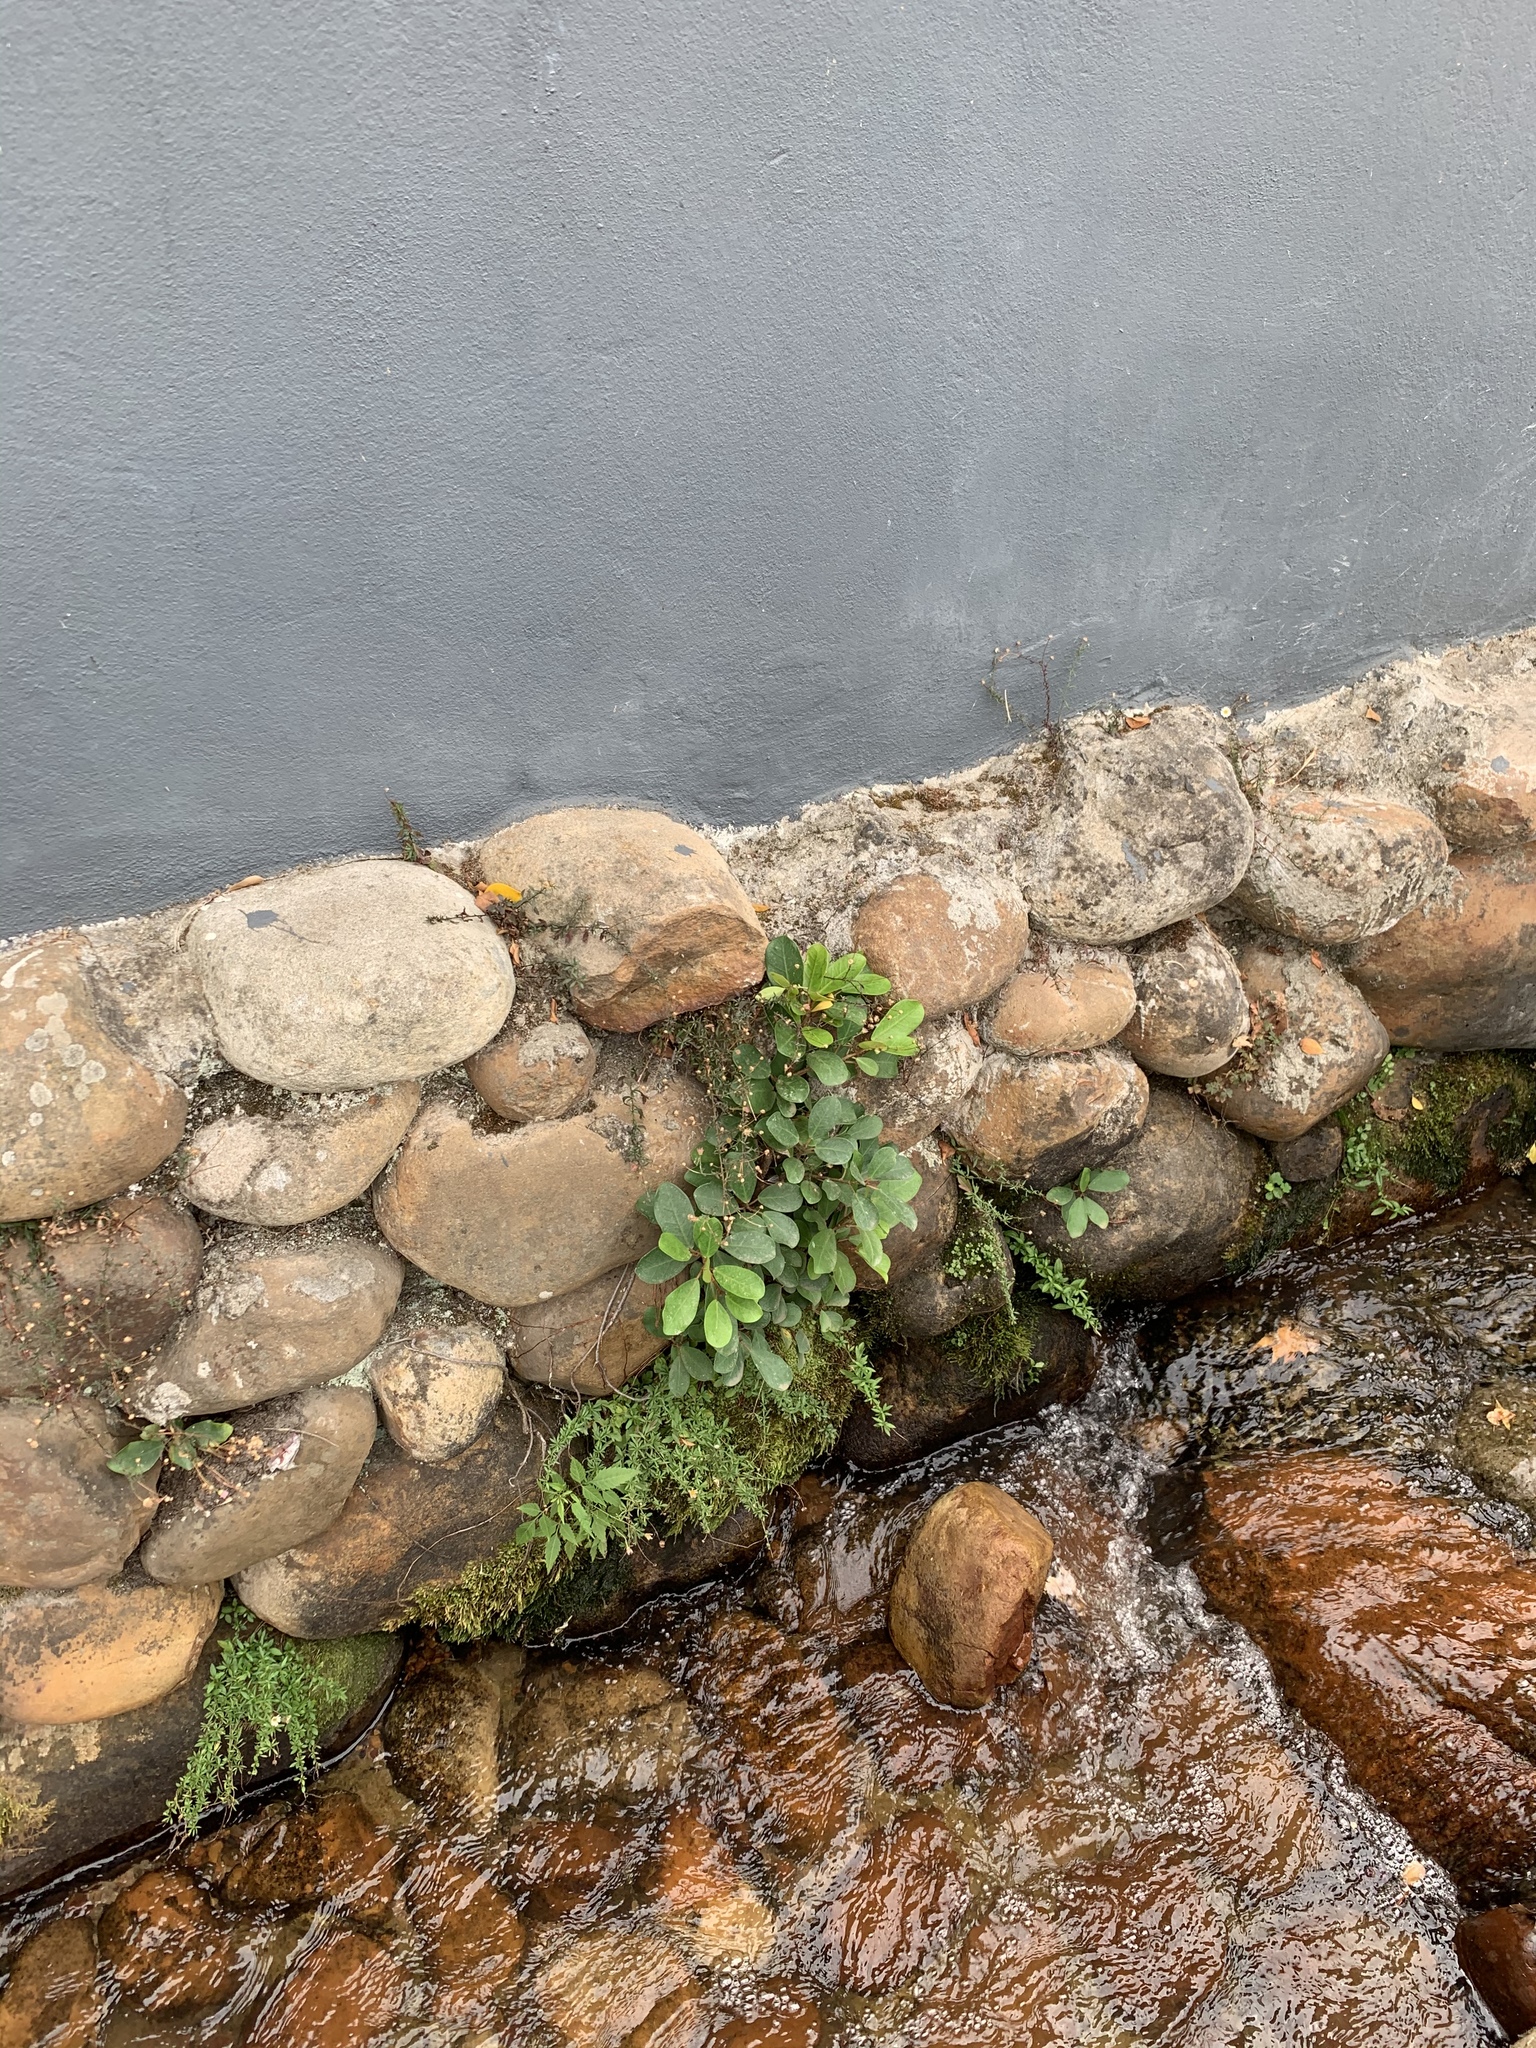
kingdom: Plantae
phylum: Tracheophyta
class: Magnoliopsida
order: Rosales
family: Moraceae
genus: Ficus
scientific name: Ficus thonningii
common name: Fig
